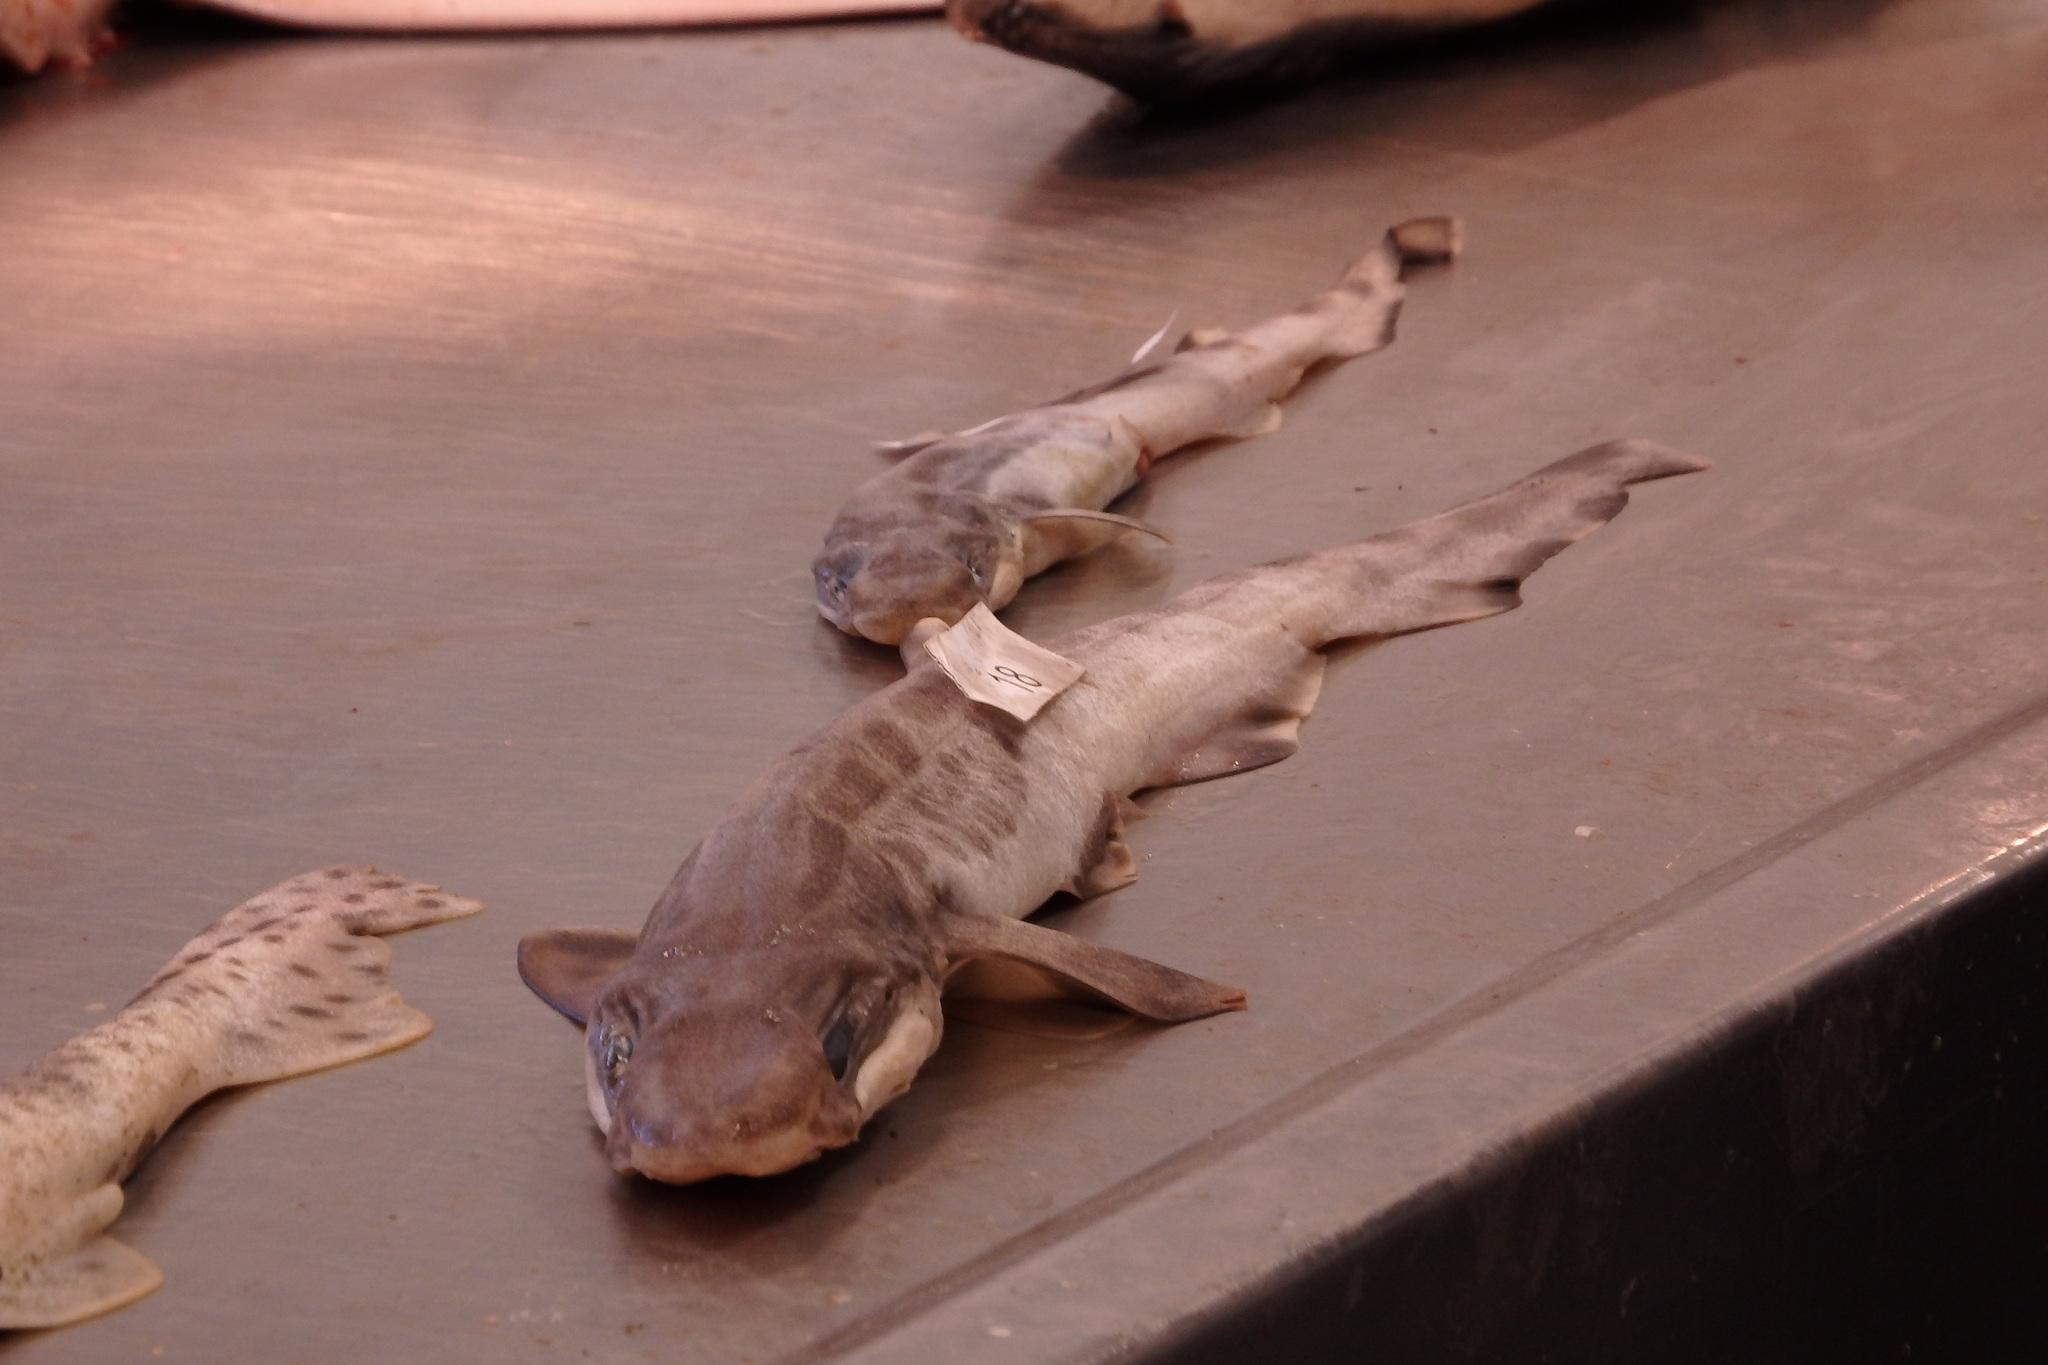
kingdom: Animalia
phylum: Chordata
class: Elasmobranchii
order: Carcharhiniformes
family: Scyliorhinidae
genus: Galeus
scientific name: Galeus melastomus
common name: Black-mouthed dogfish
